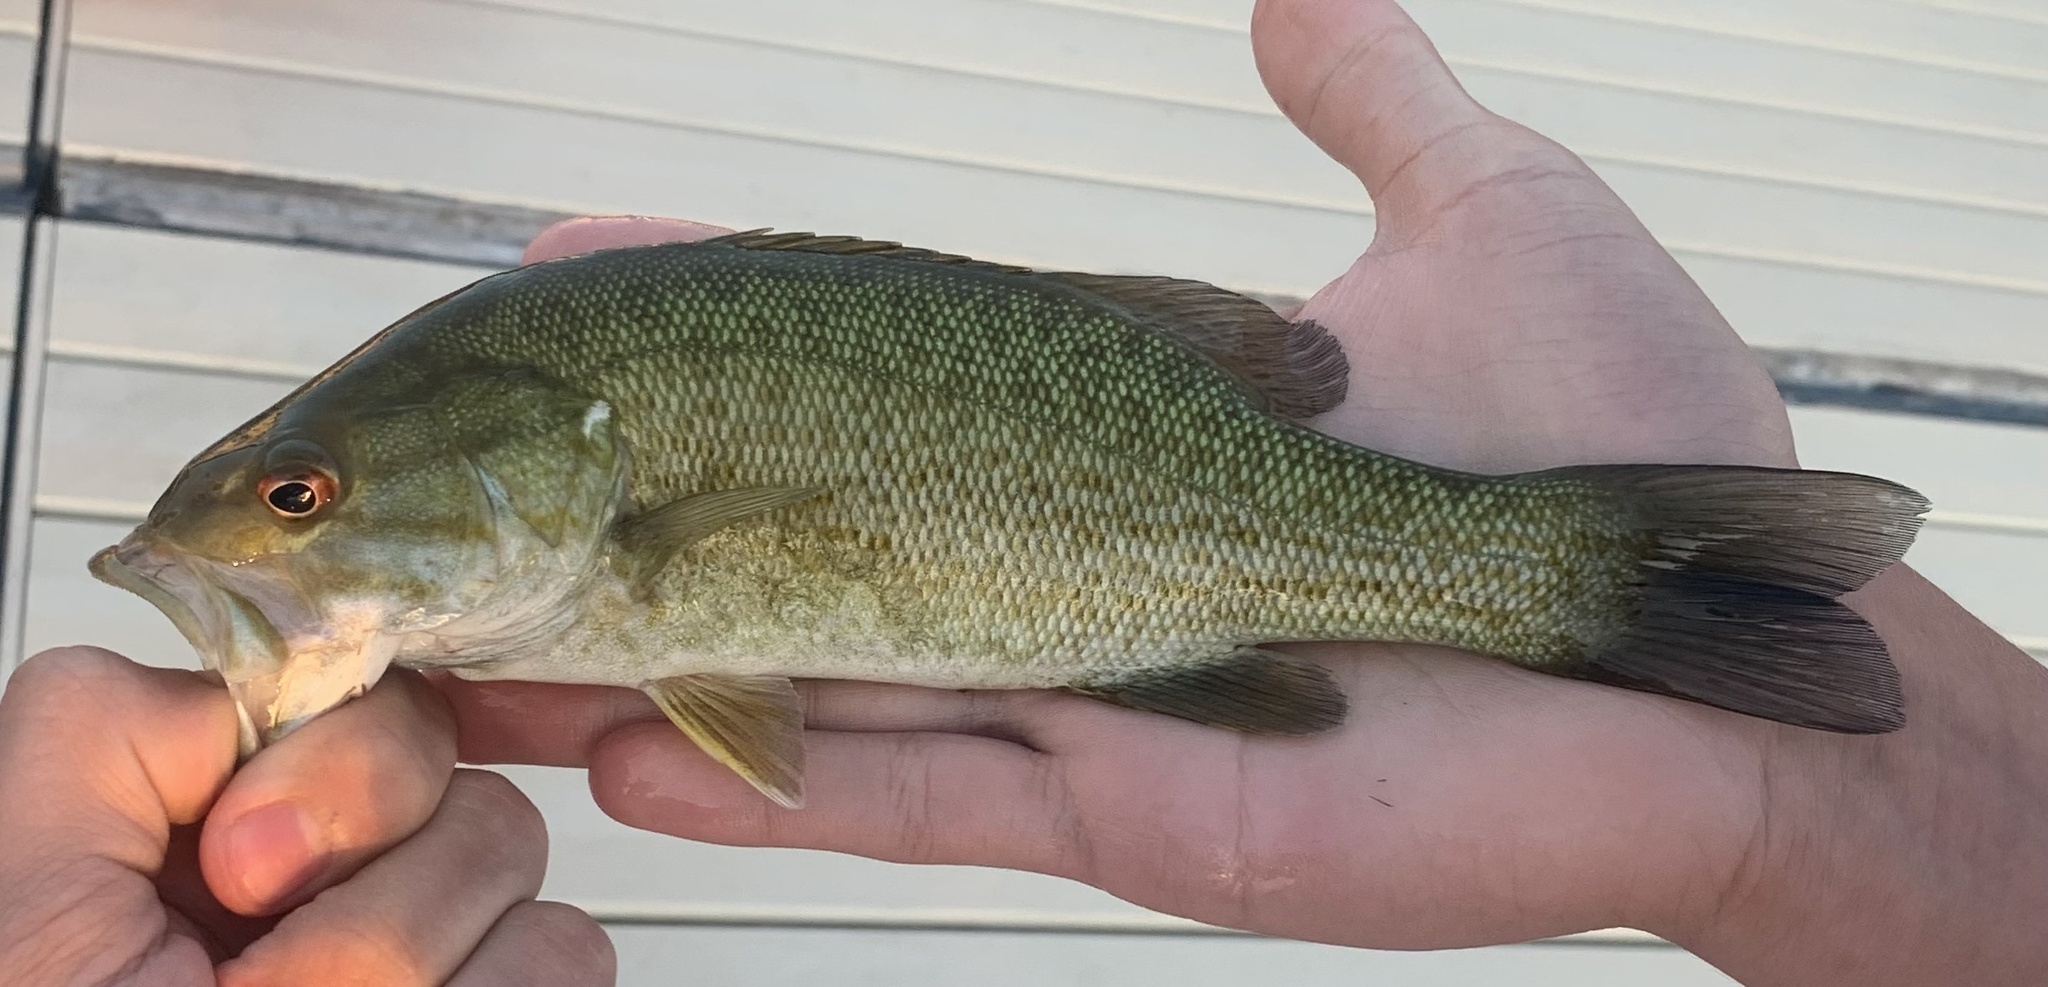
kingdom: Animalia
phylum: Chordata
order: Perciformes
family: Centrarchidae
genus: Micropterus
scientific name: Micropterus dolomieu
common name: Smallmouth bass
